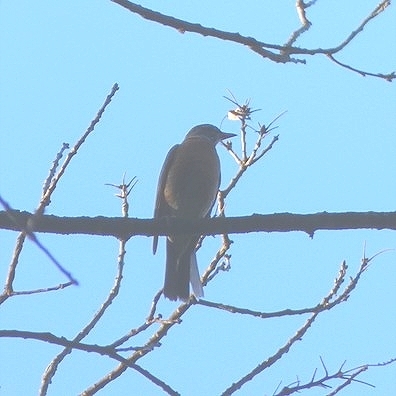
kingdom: Animalia
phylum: Chordata
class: Aves
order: Passeriformes
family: Turdidae
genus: Turdus
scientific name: Turdus migratorius
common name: American robin
